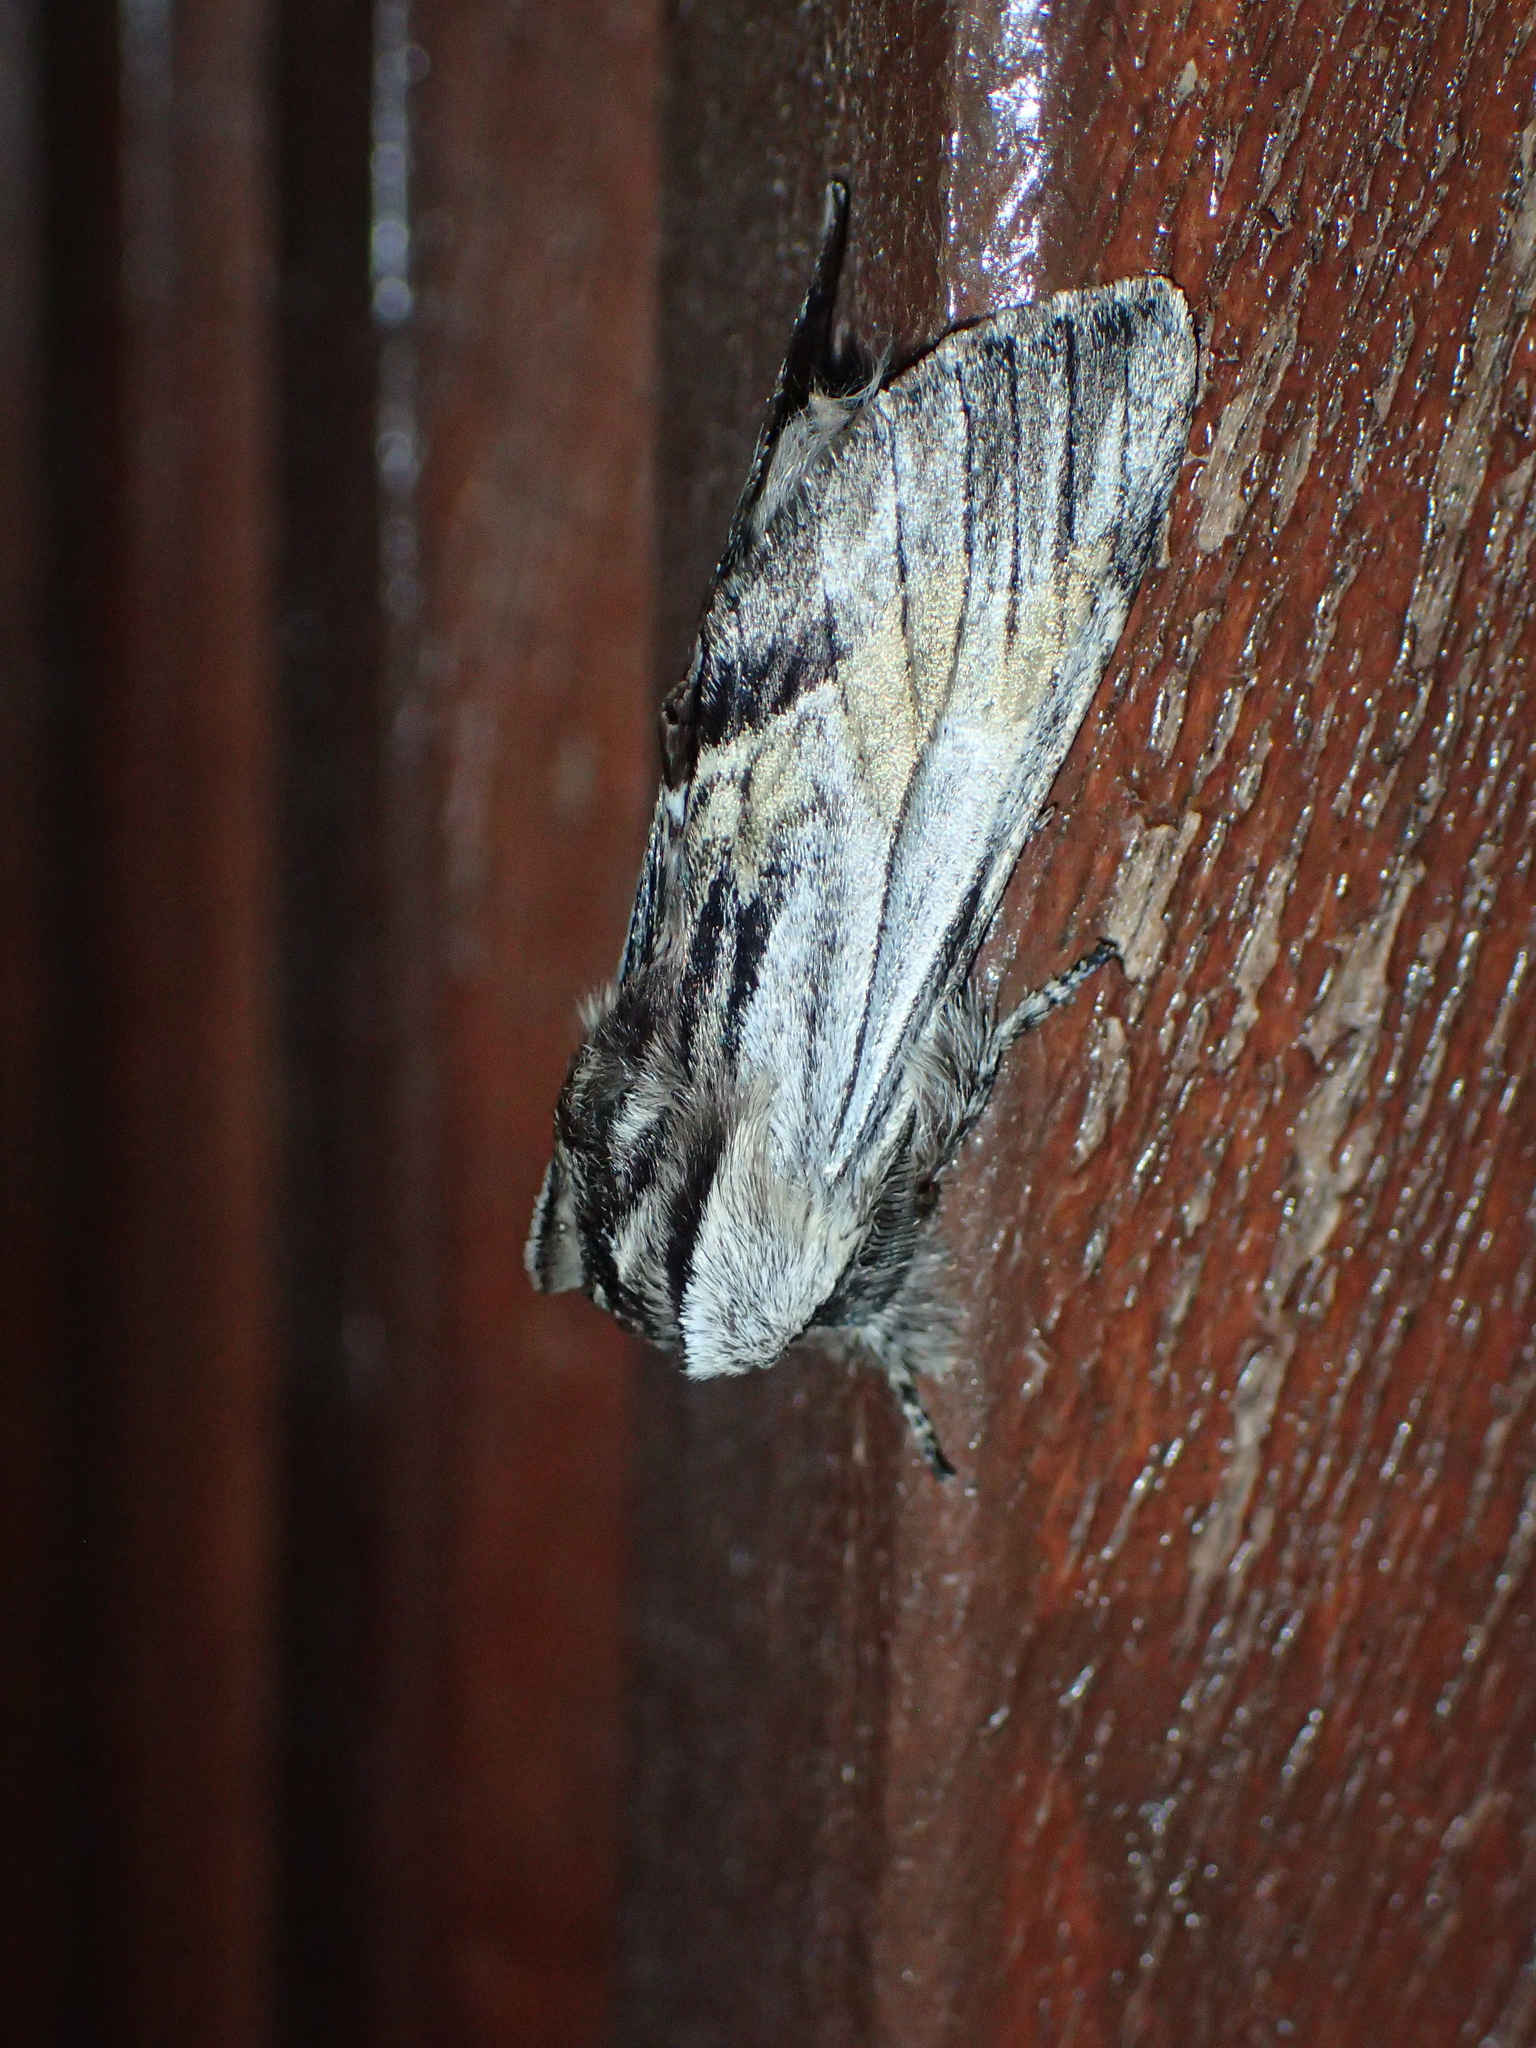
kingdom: Animalia
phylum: Arthropoda
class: Insecta
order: Lepidoptera
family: Notodontidae
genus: Harpyia
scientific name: Harpyia milhauseri
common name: Tawny prominent
